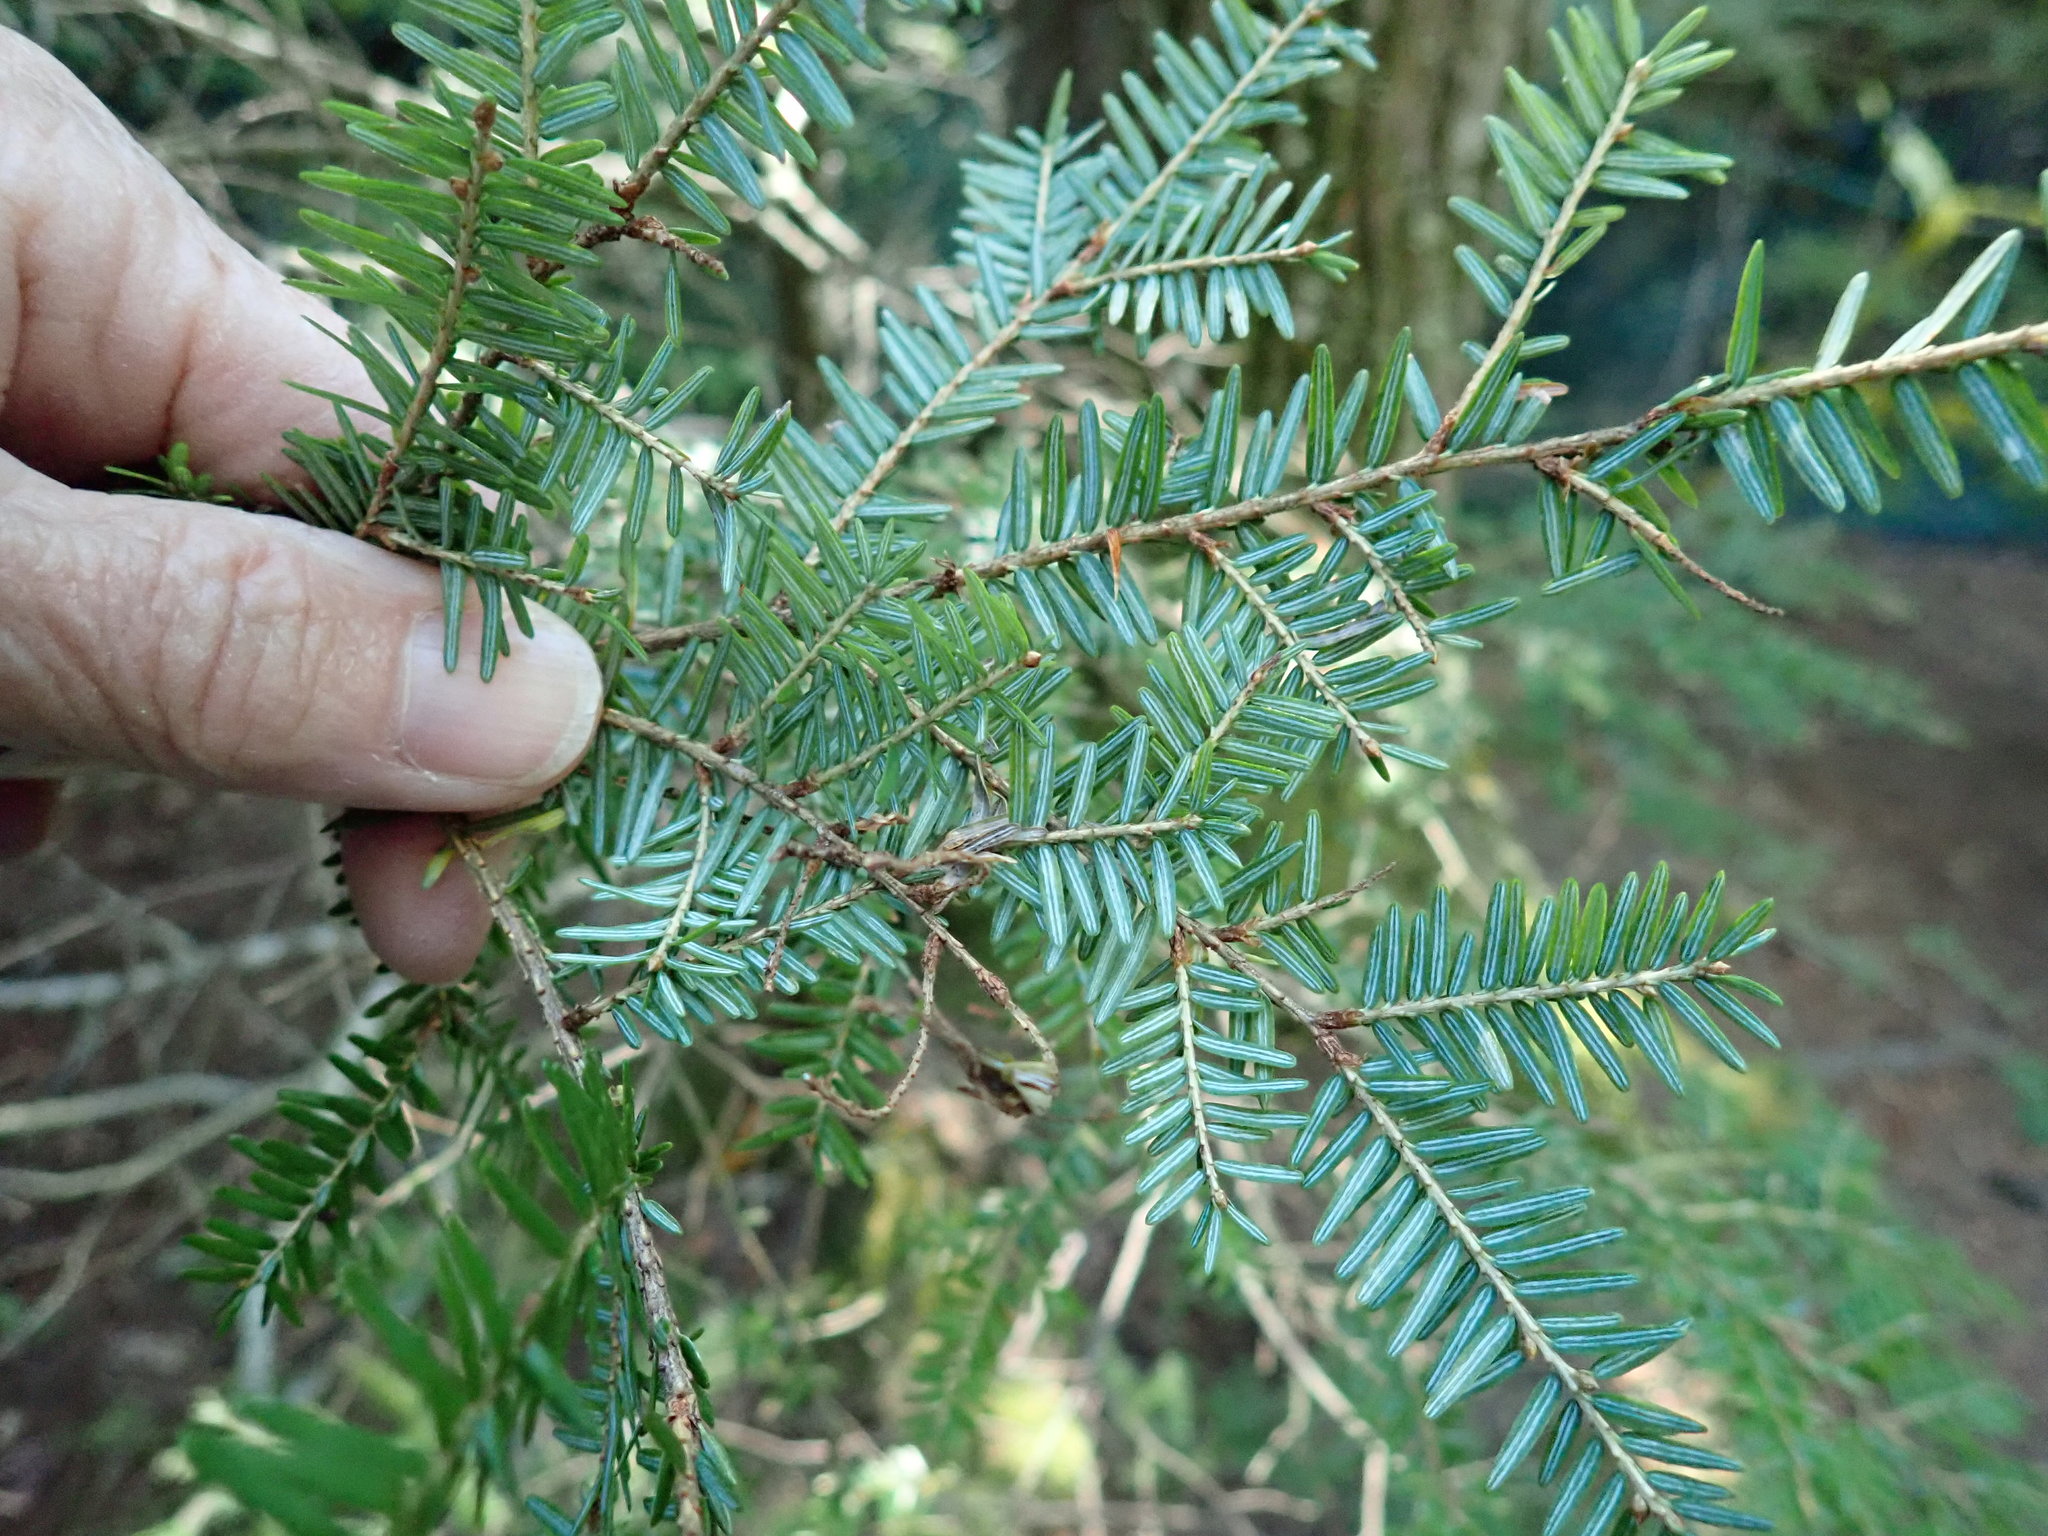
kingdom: Plantae
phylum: Tracheophyta
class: Pinopsida
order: Pinales
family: Pinaceae
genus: Tsuga
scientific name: Tsuga canadensis
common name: Eastern hemlock
